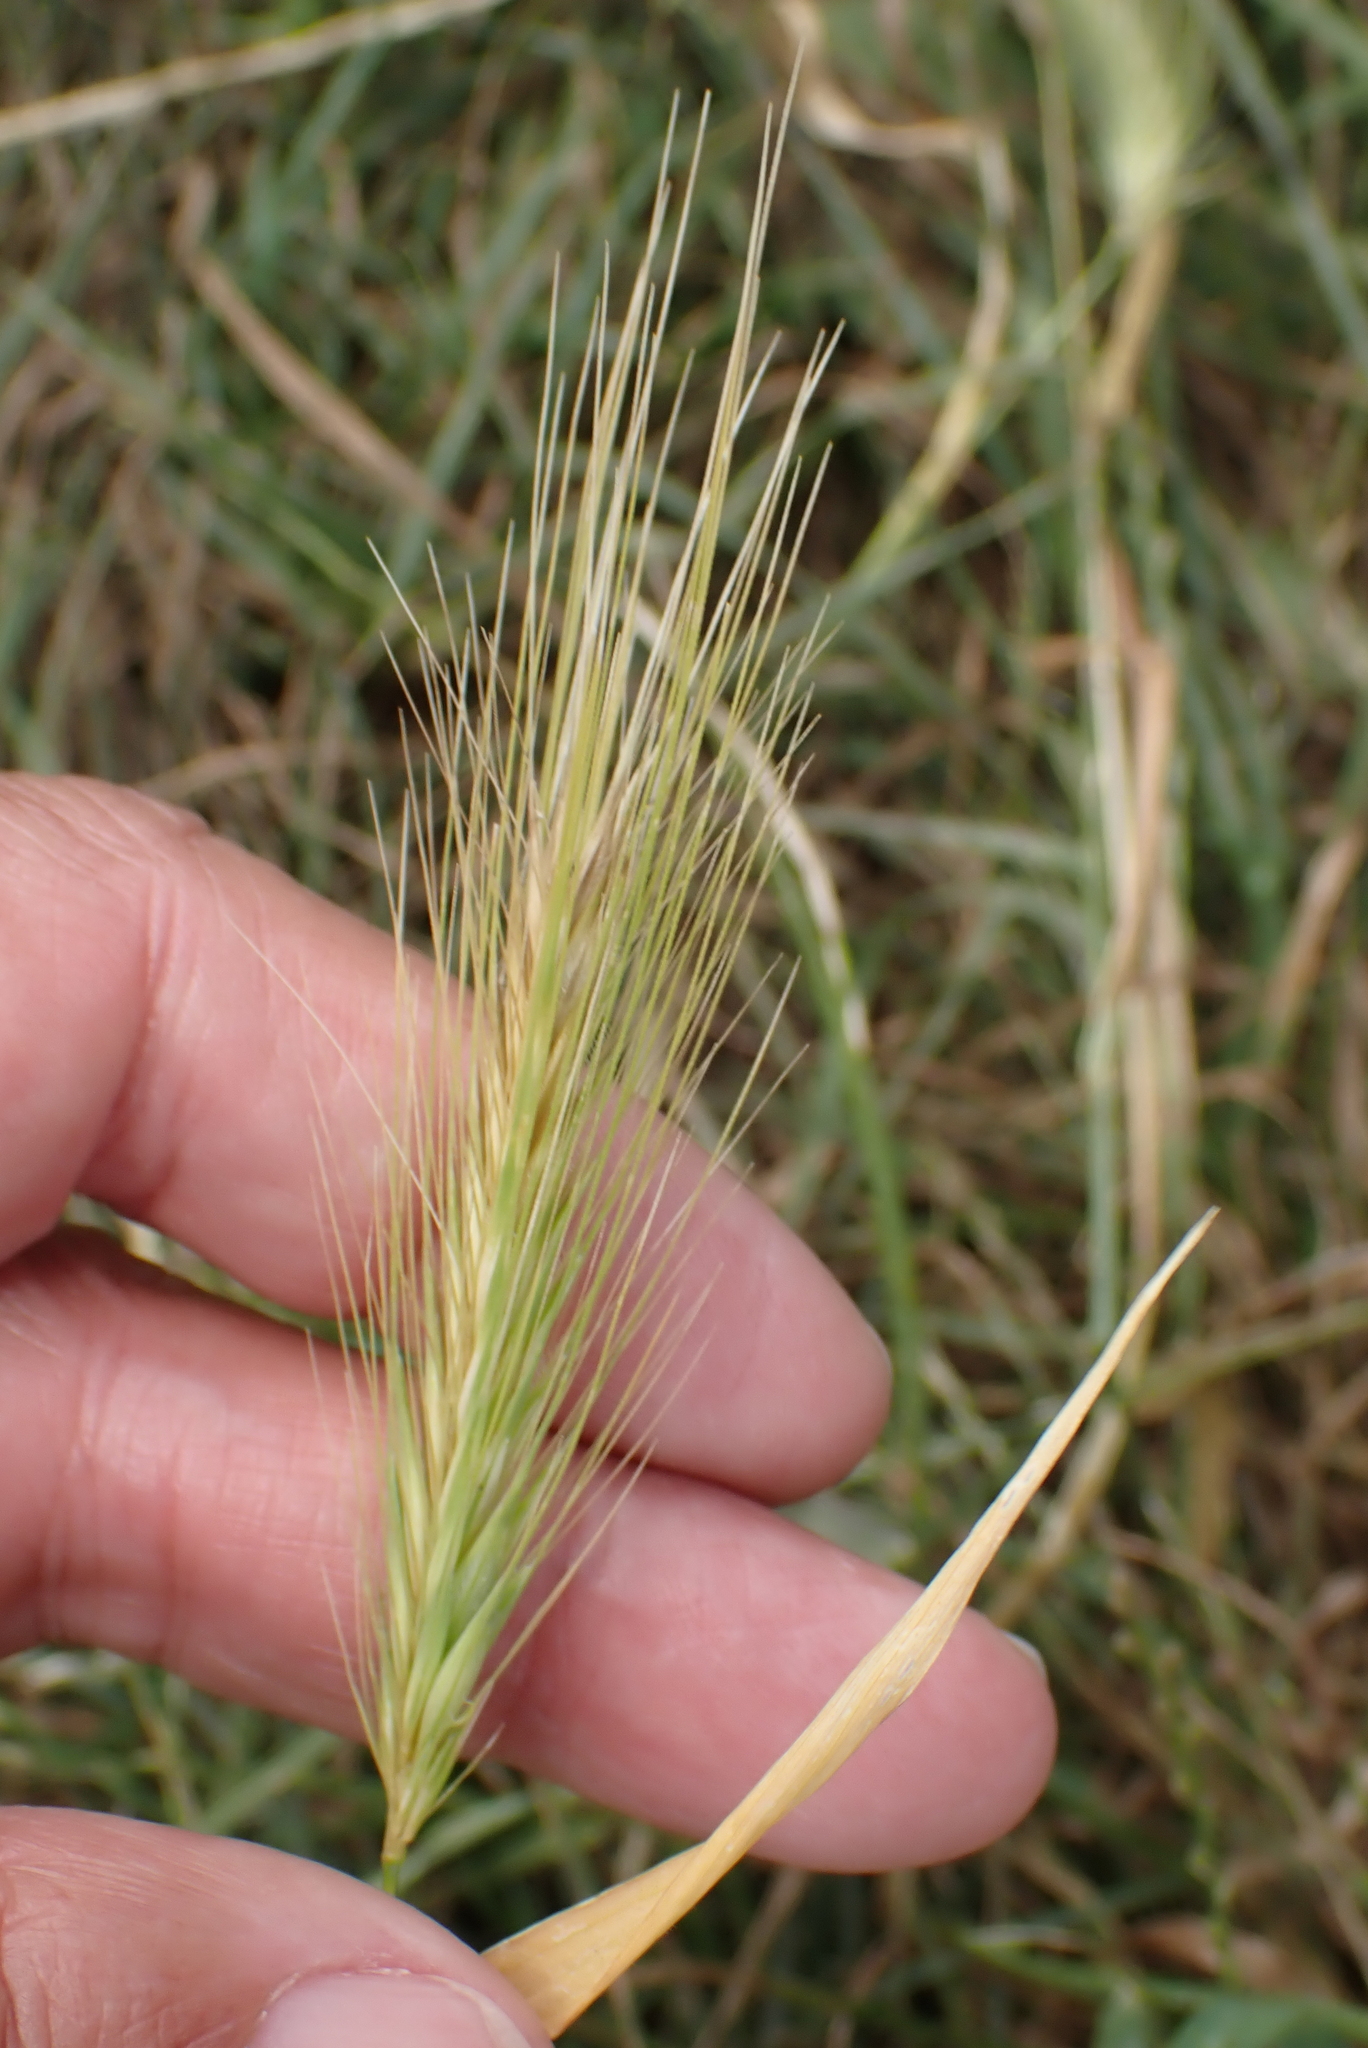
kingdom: Plantae
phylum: Tracheophyta
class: Liliopsida
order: Poales
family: Poaceae
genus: Hordeum
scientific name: Hordeum murinum
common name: Wall barley
